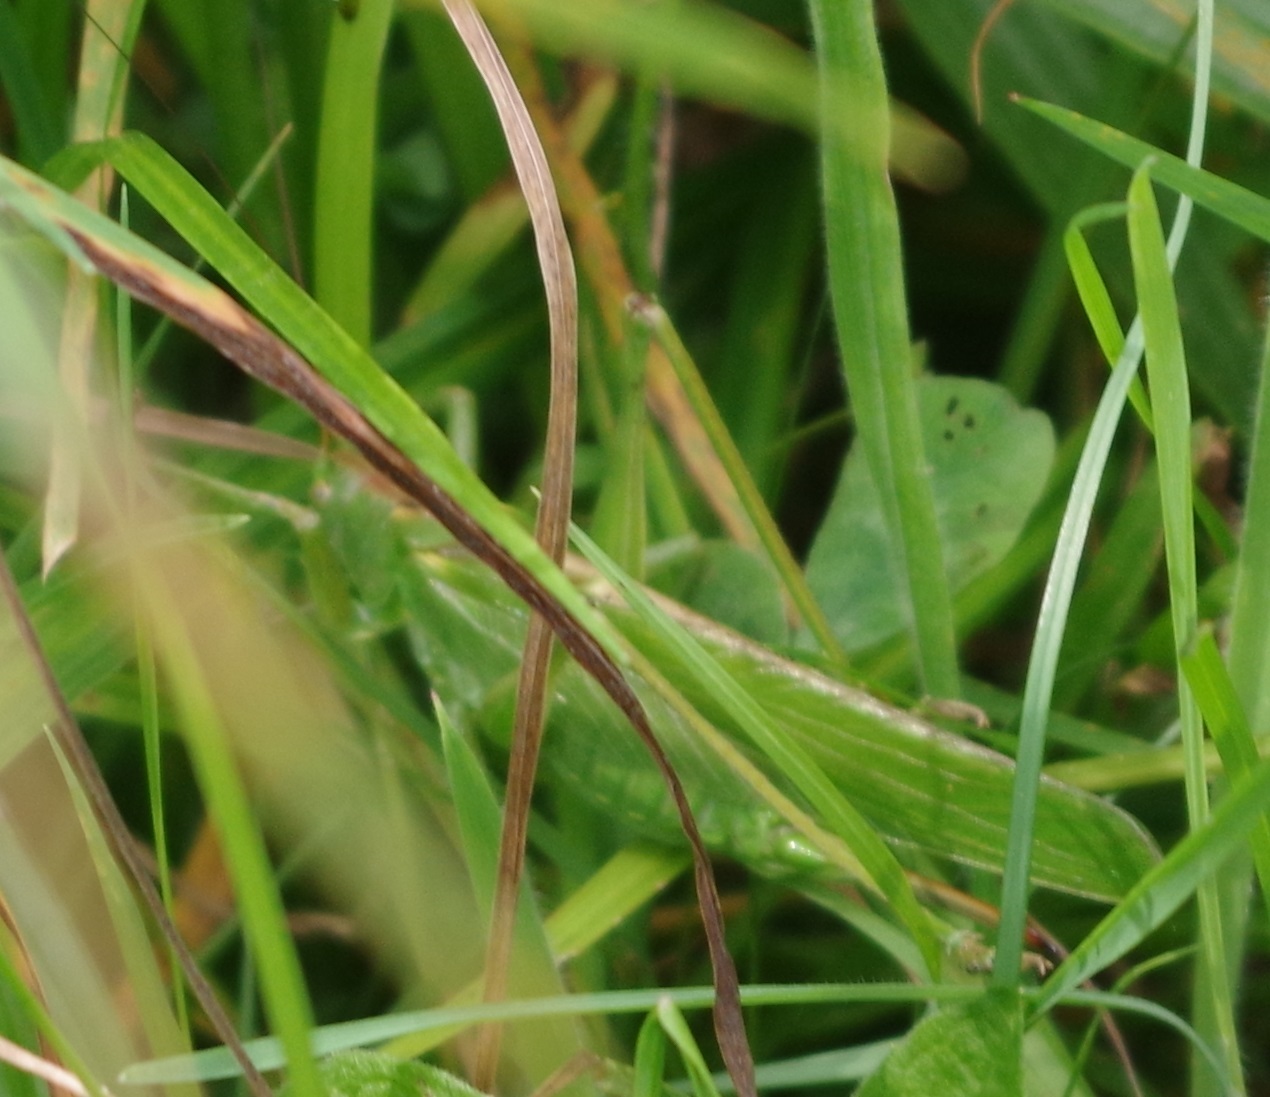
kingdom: Animalia
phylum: Arthropoda
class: Insecta
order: Orthoptera
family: Tettigoniidae
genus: Tettigonia
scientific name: Tettigonia viridissima
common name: Great green bush-cricket
